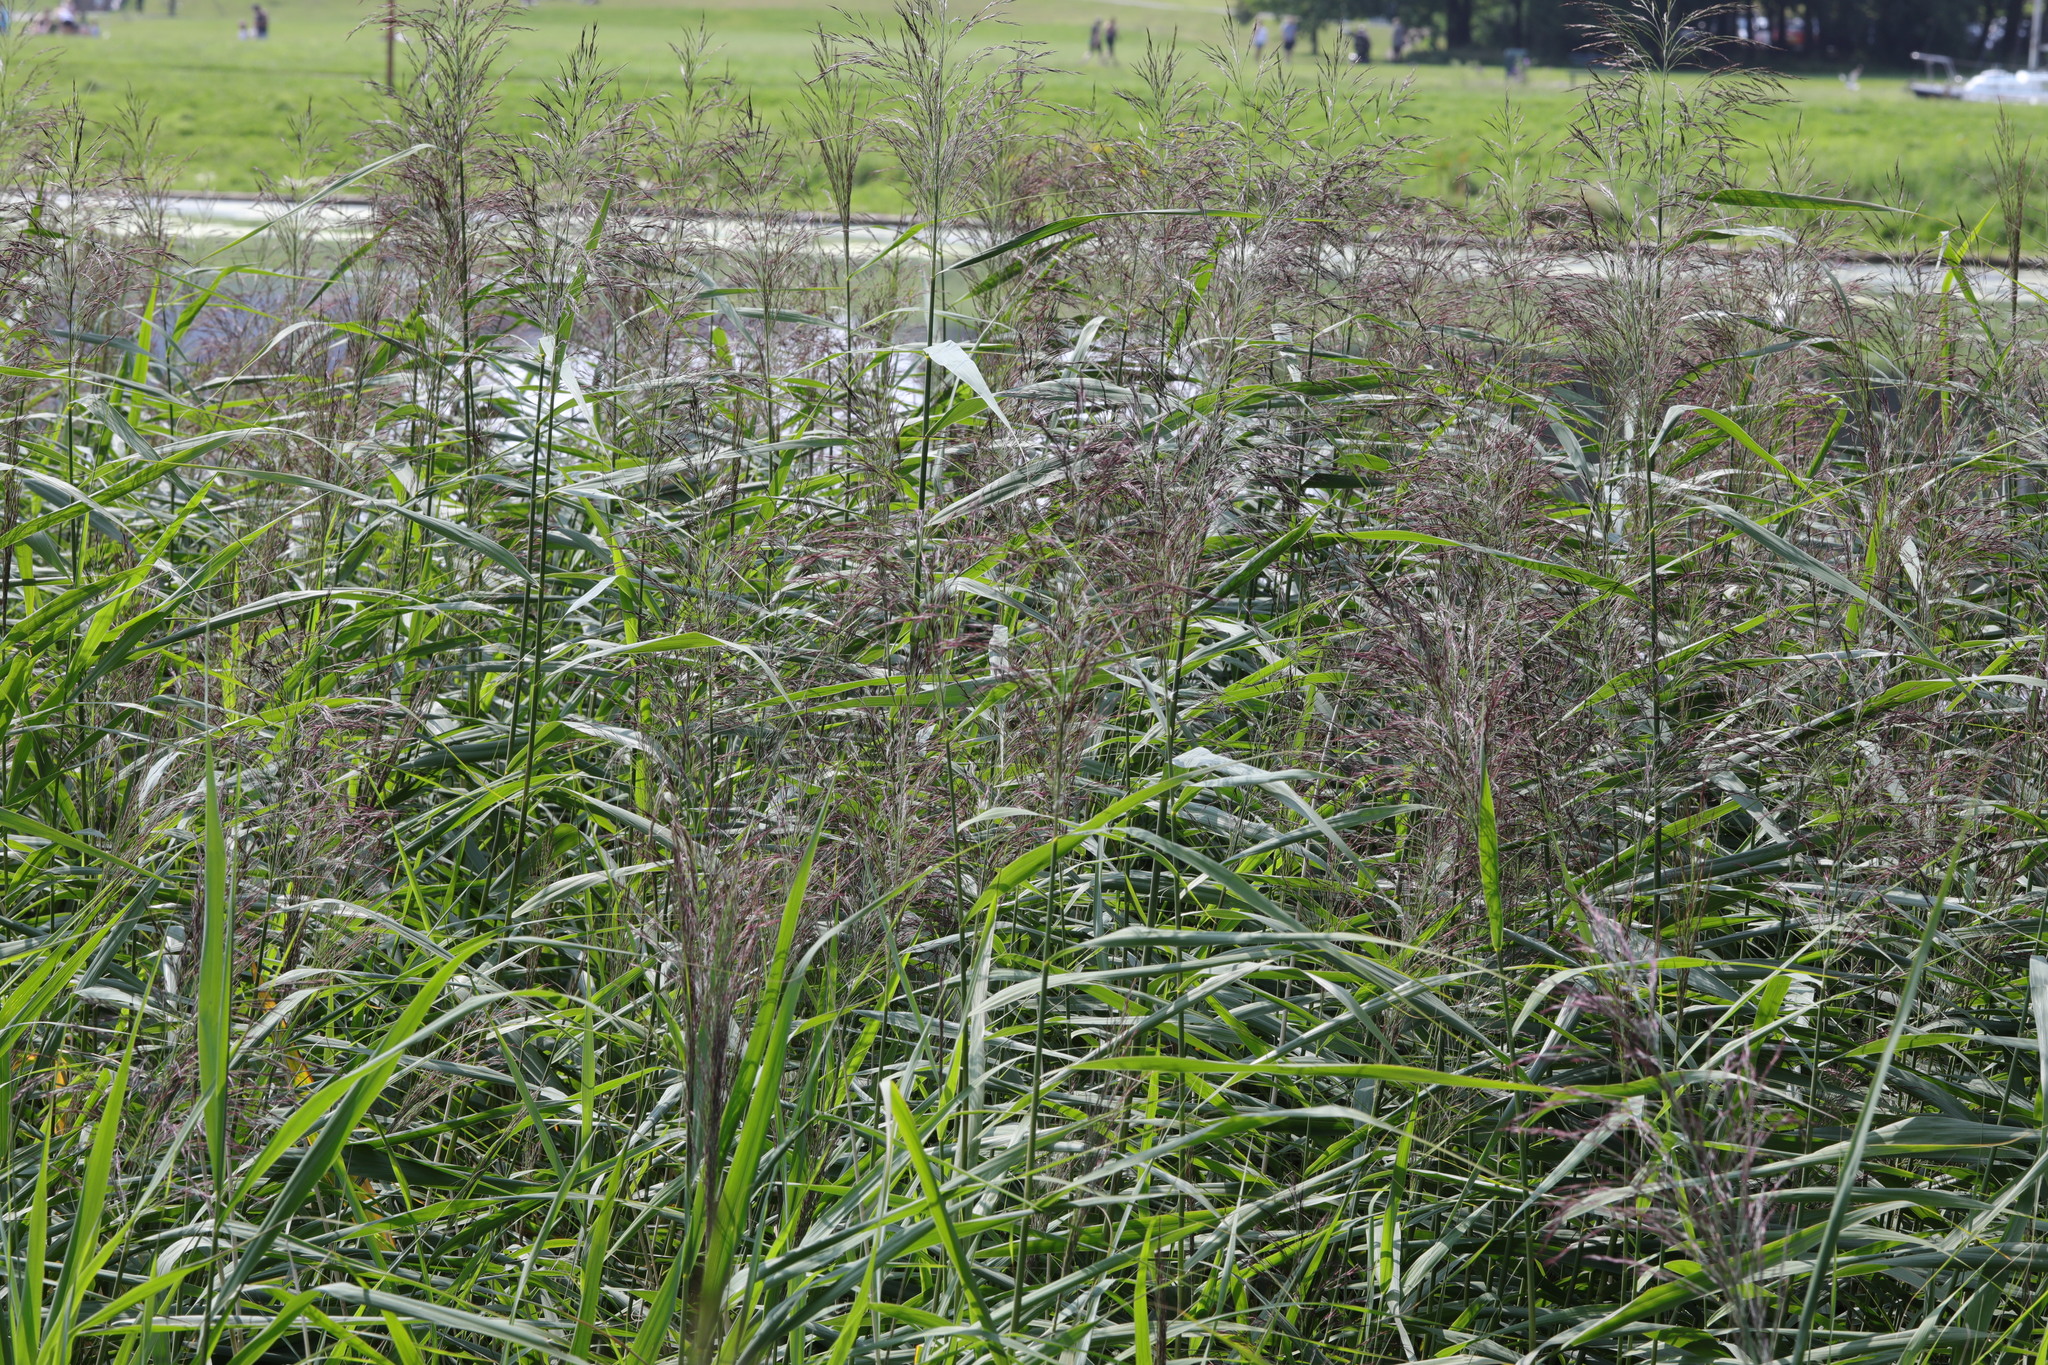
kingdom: Plantae
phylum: Tracheophyta
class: Liliopsida
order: Poales
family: Poaceae
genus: Phragmites
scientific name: Phragmites australis
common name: Common reed
